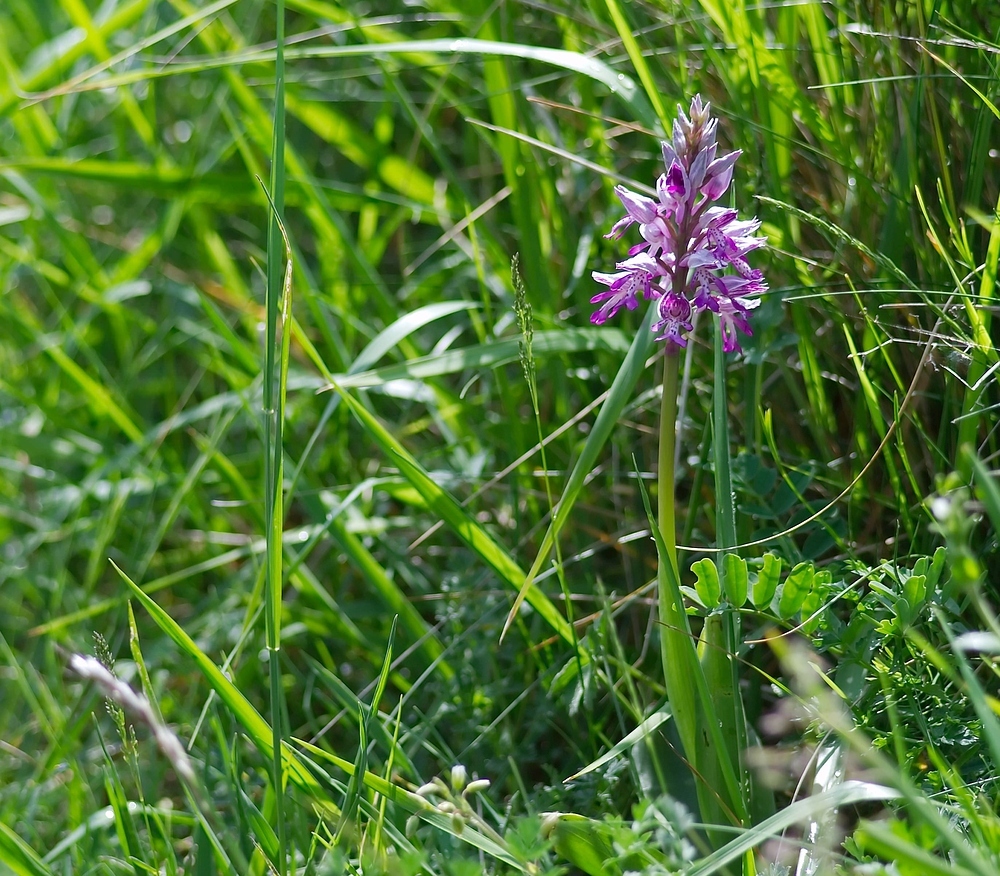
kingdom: Plantae
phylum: Tracheophyta
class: Liliopsida
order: Asparagales
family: Orchidaceae
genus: Orchis
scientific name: Orchis militaris
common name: Military orchid
